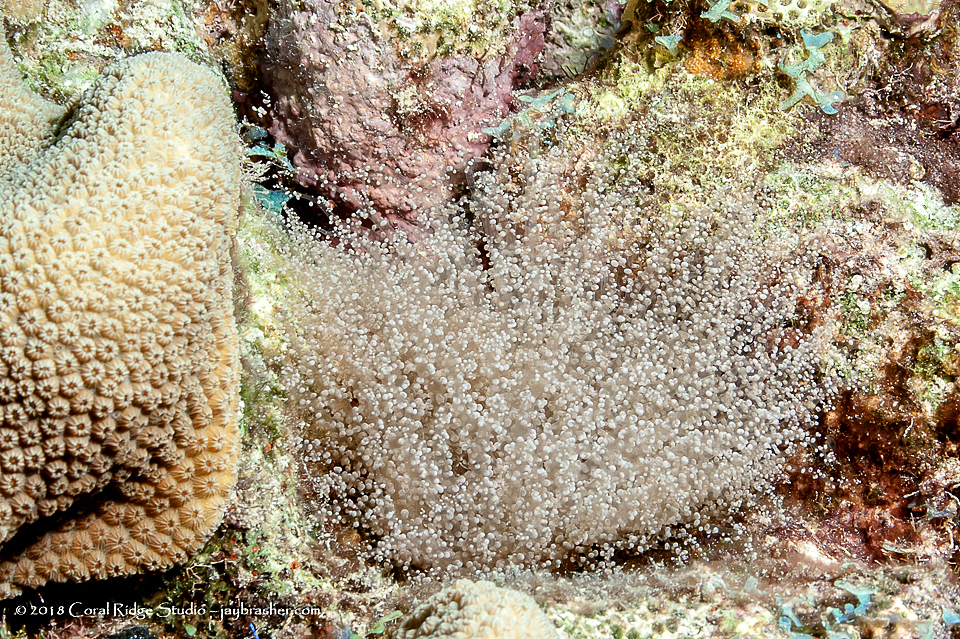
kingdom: Animalia
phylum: Cnidaria
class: Anthozoa
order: Actiniaria
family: Aiptasiidae
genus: Laviactis
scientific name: Laviactis lucida
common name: Atlantic beaded anemone
